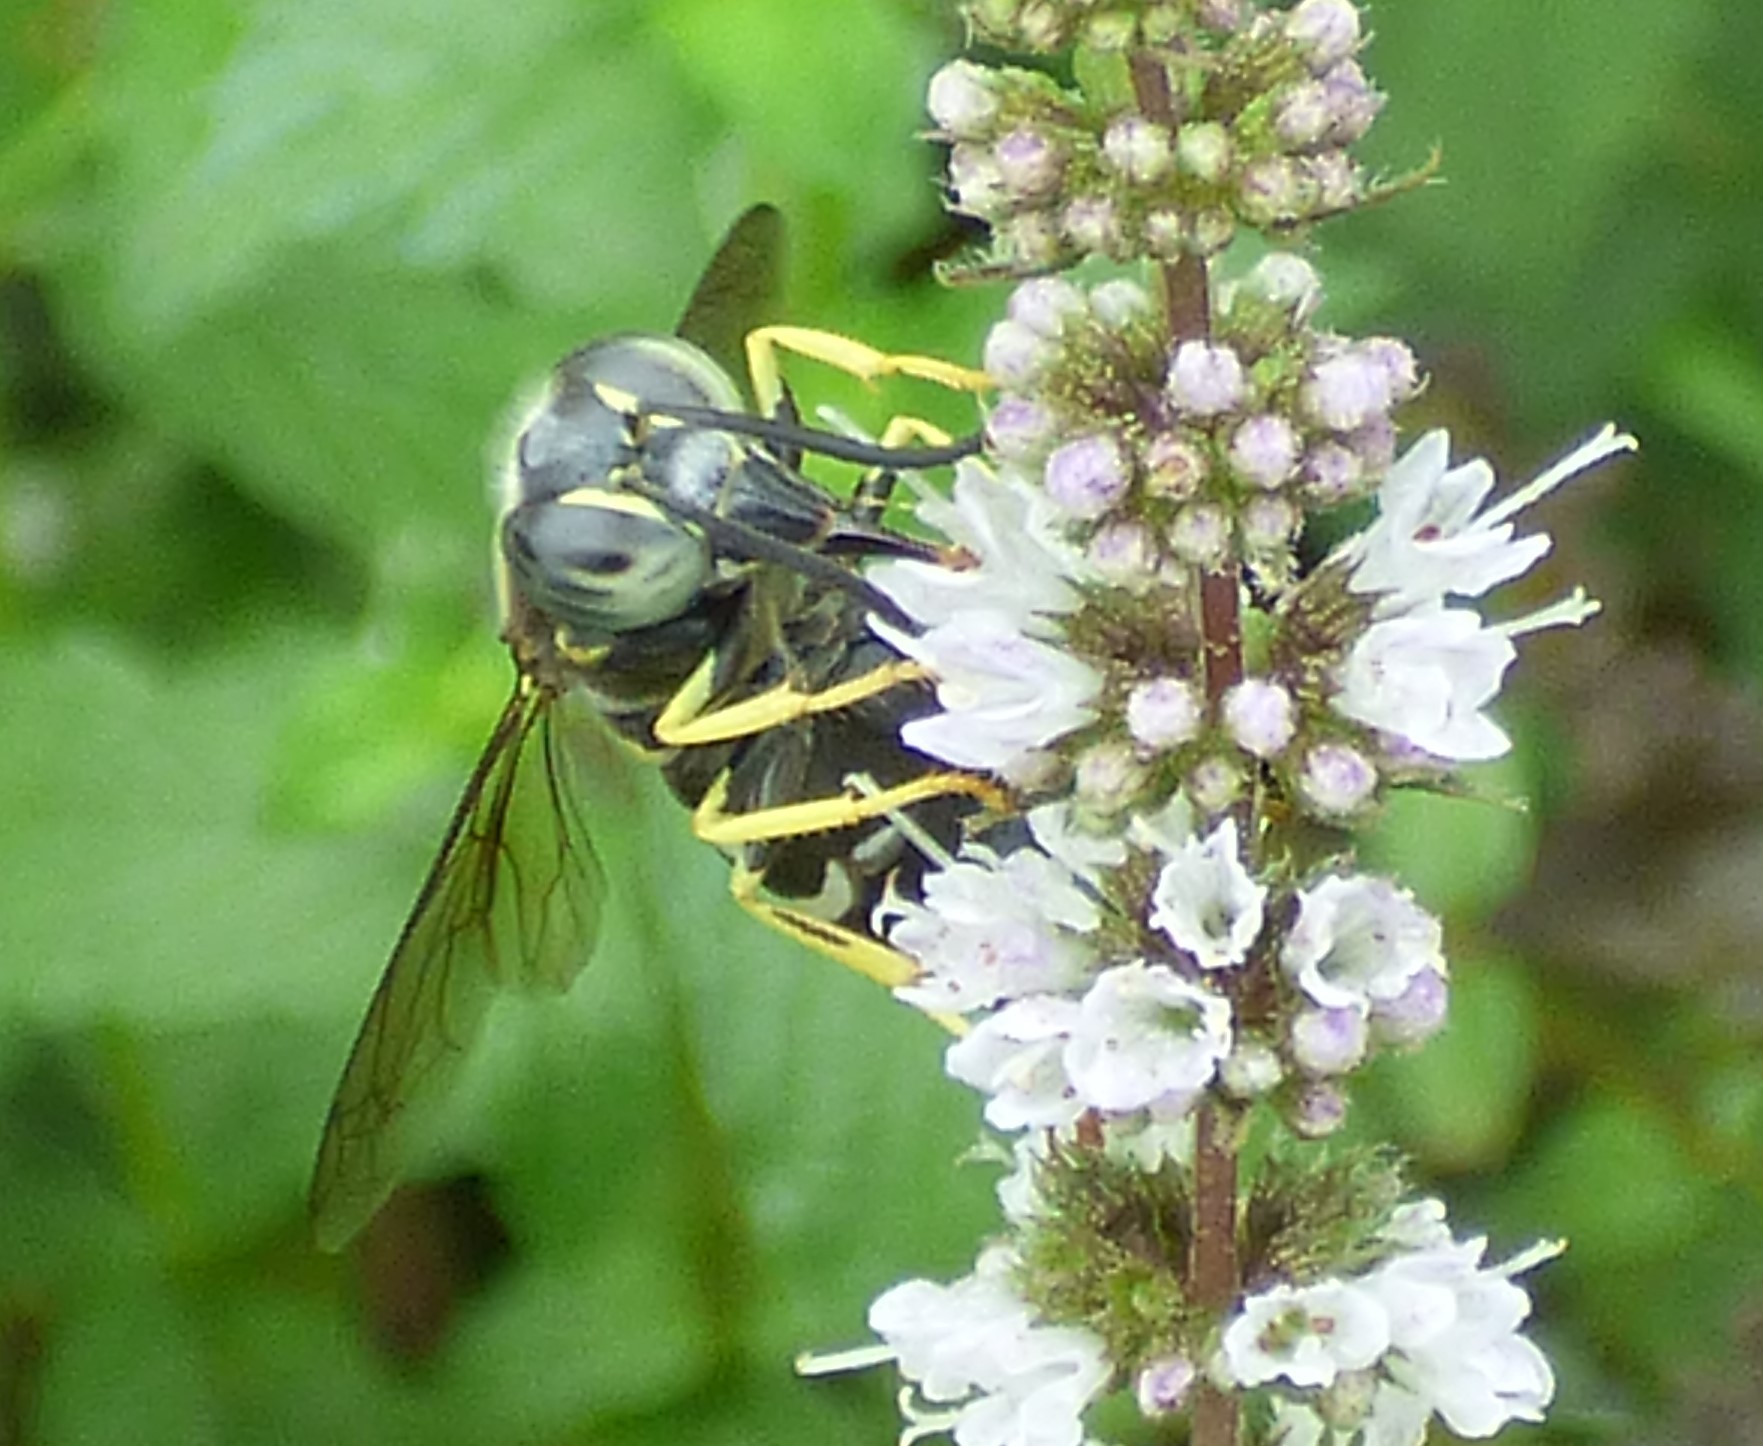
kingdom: Animalia
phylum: Arthropoda
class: Insecta
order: Hymenoptera
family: Crabronidae
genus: Bicyrtes
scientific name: Bicyrtes quadrifasciatus
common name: Four-banded stink bug hunter wasp
